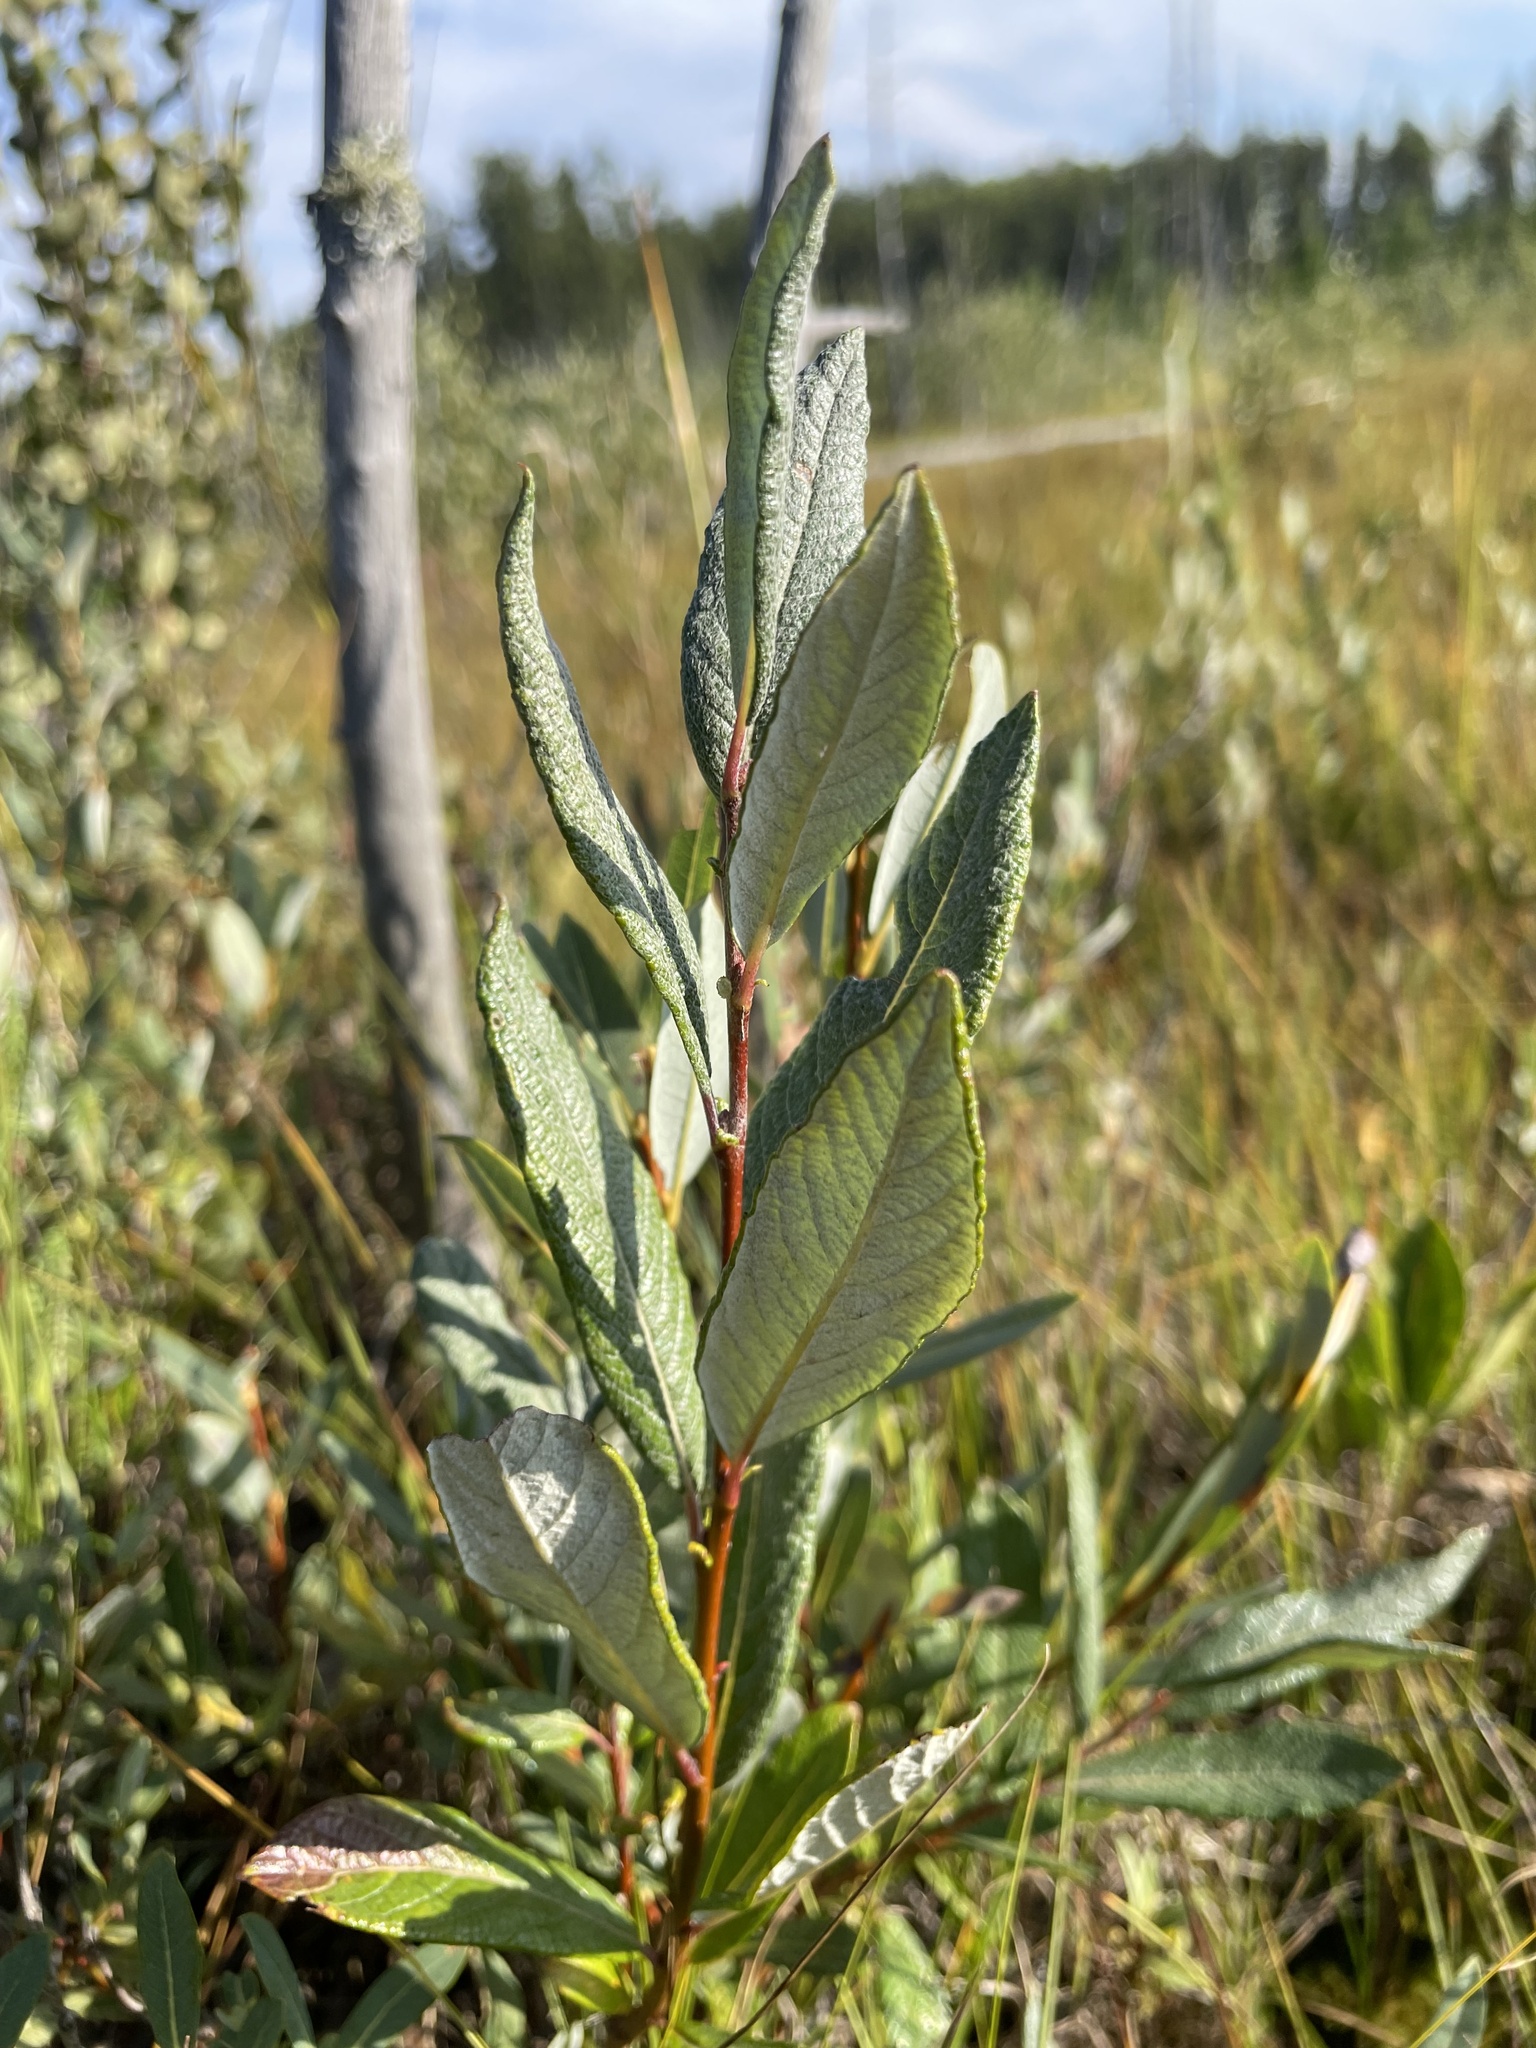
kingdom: Plantae
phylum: Tracheophyta
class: Magnoliopsida
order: Malpighiales
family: Salicaceae
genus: Salix
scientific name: Salix candida
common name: Hoary willow
